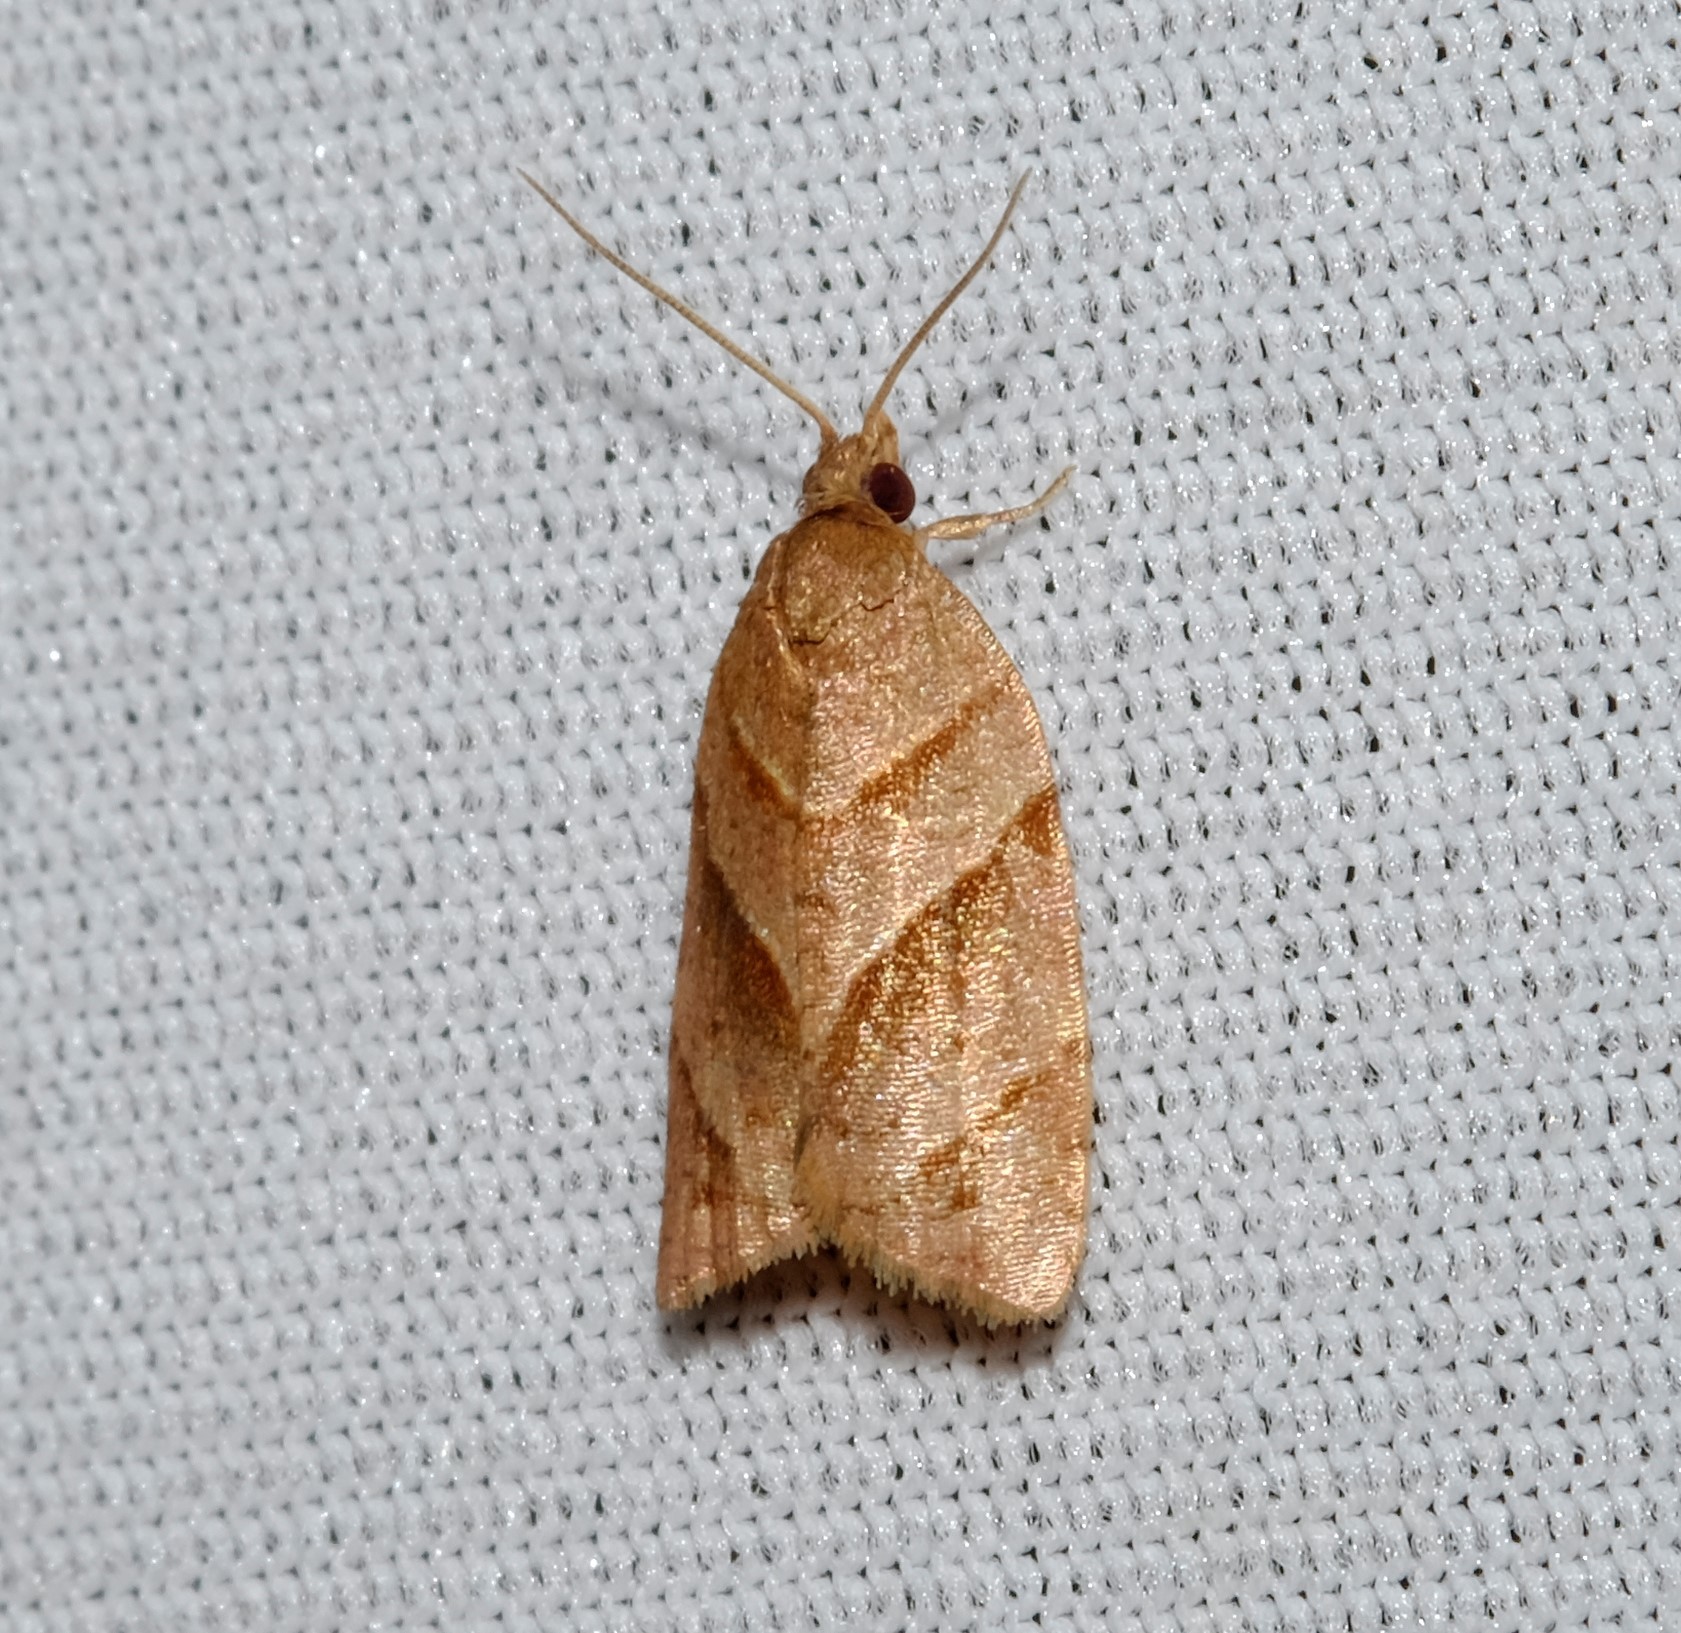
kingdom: Animalia
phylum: Arthropoda
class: Insecta
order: Lepidoptera
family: Tortricidae
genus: Capua
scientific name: Capua paraloxa
